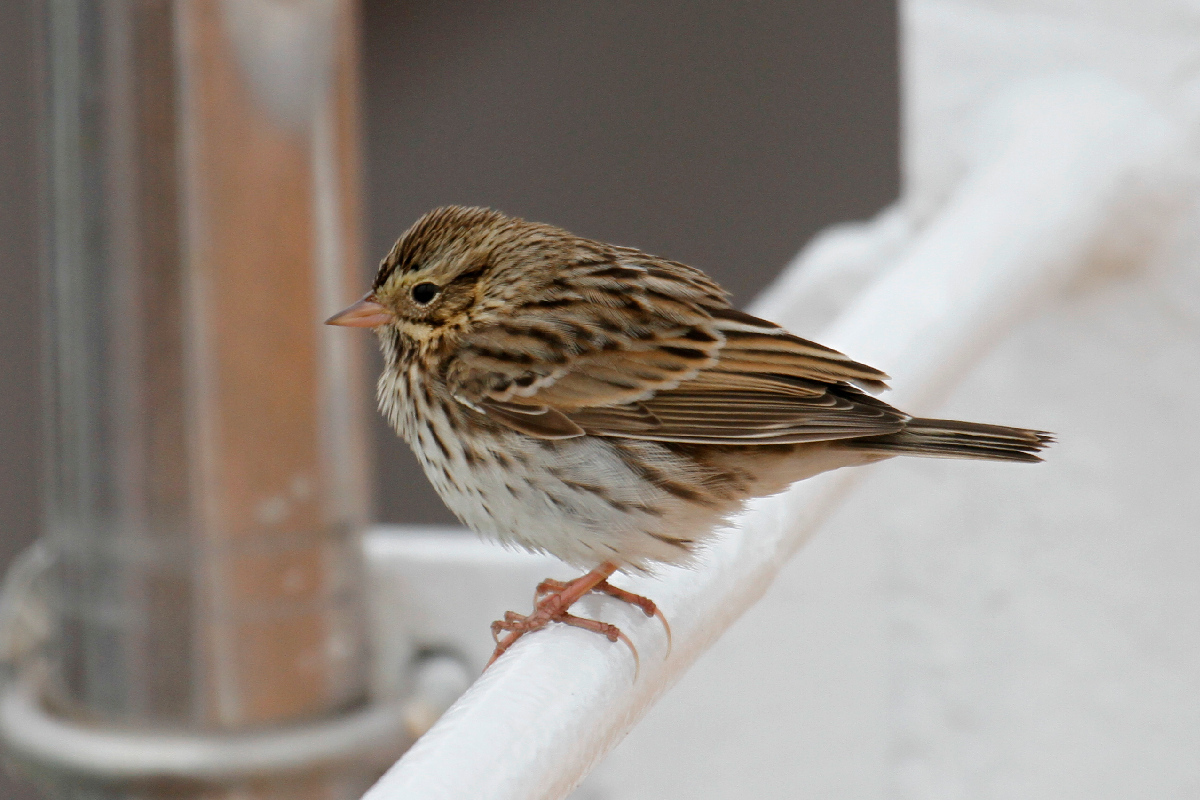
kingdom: Animalia
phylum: Chordata
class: Aves
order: Passeriformes
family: Passerellidae
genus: Passerculus
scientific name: Passerculus sandwichensis
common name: Savannah sparrow
